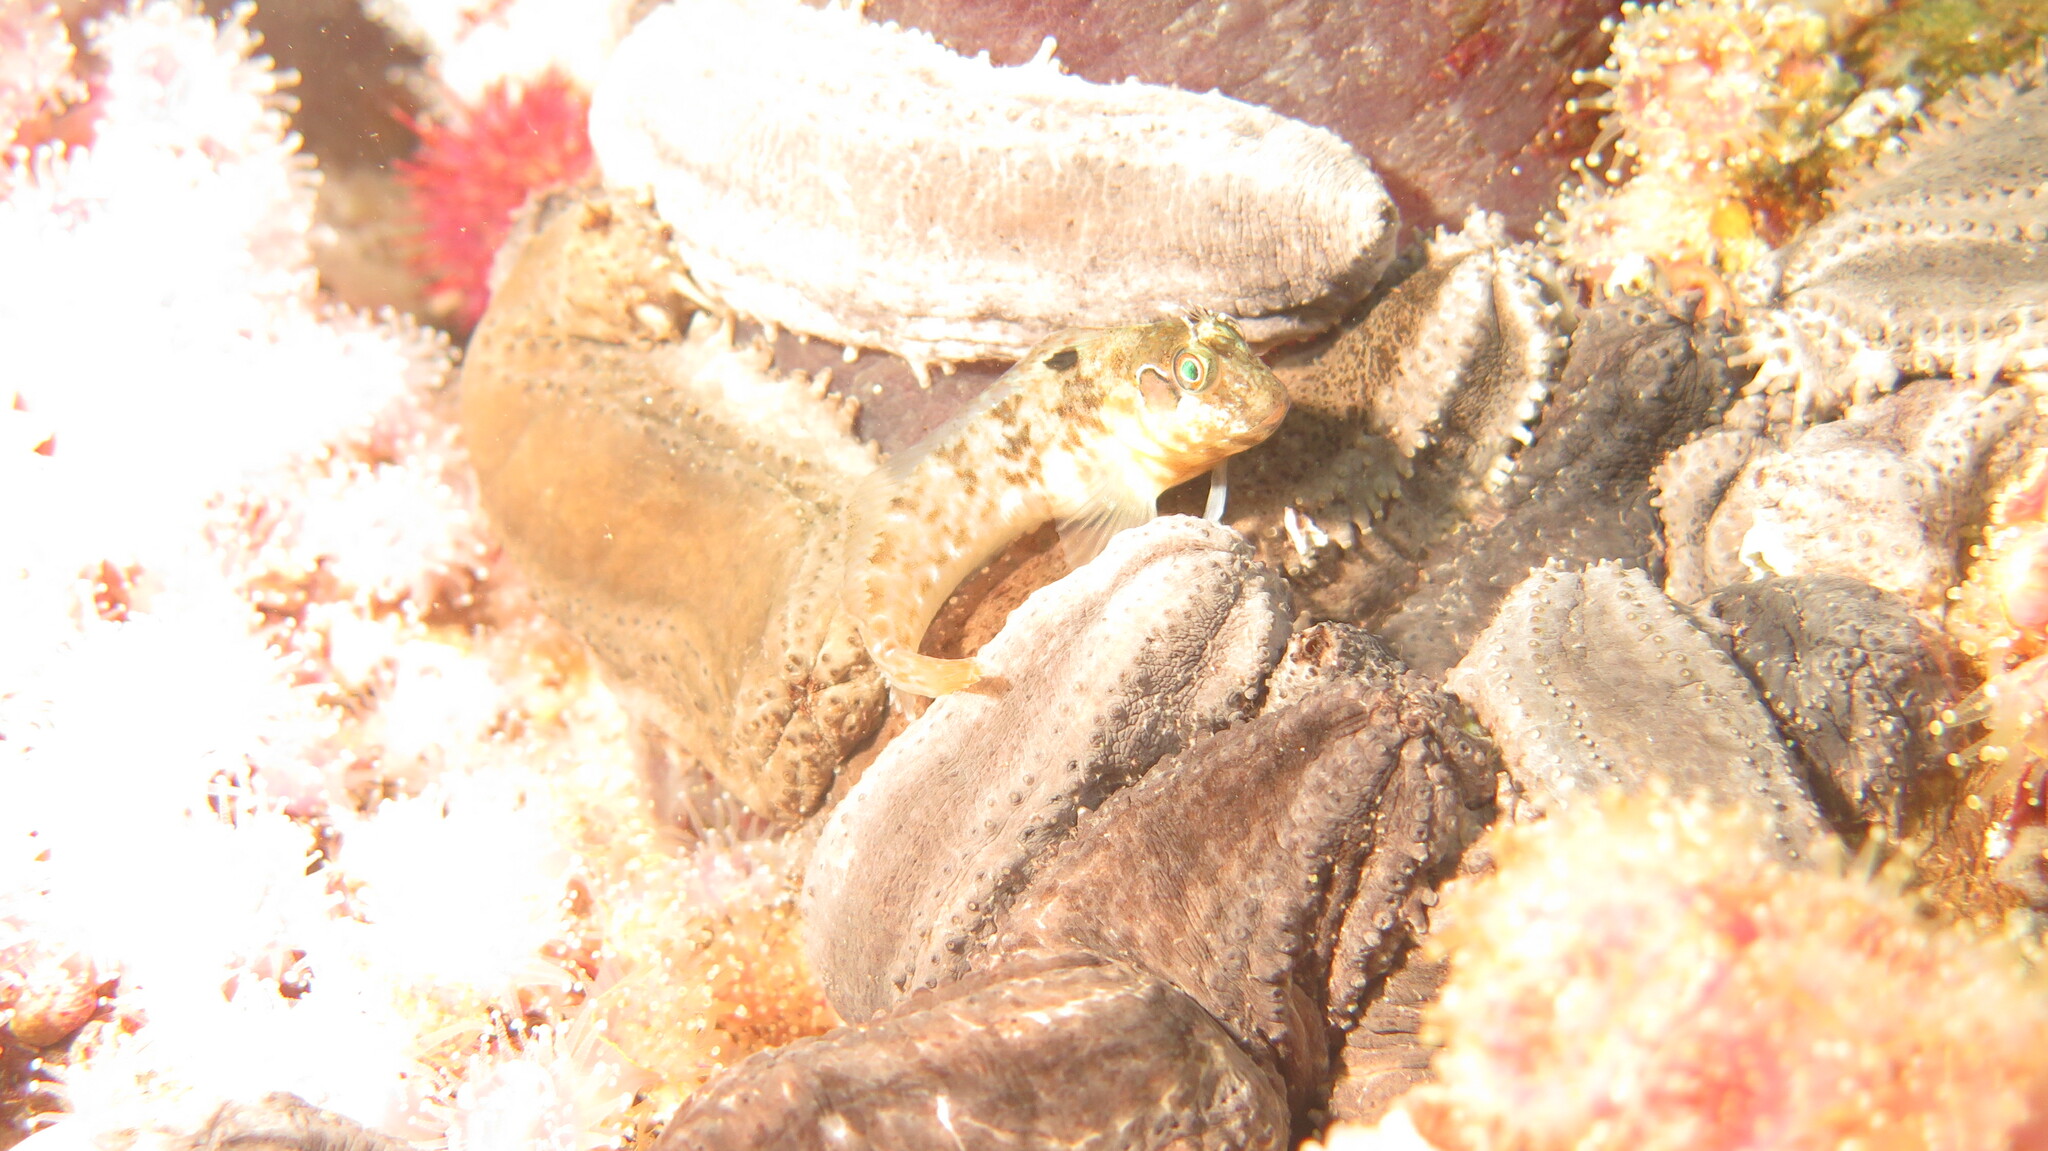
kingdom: Animalia
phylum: Chordata
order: Perciformes
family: Blenniidae
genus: Chalaroderma
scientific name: Chalaroderma ocellata
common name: Two-eyed blenny
